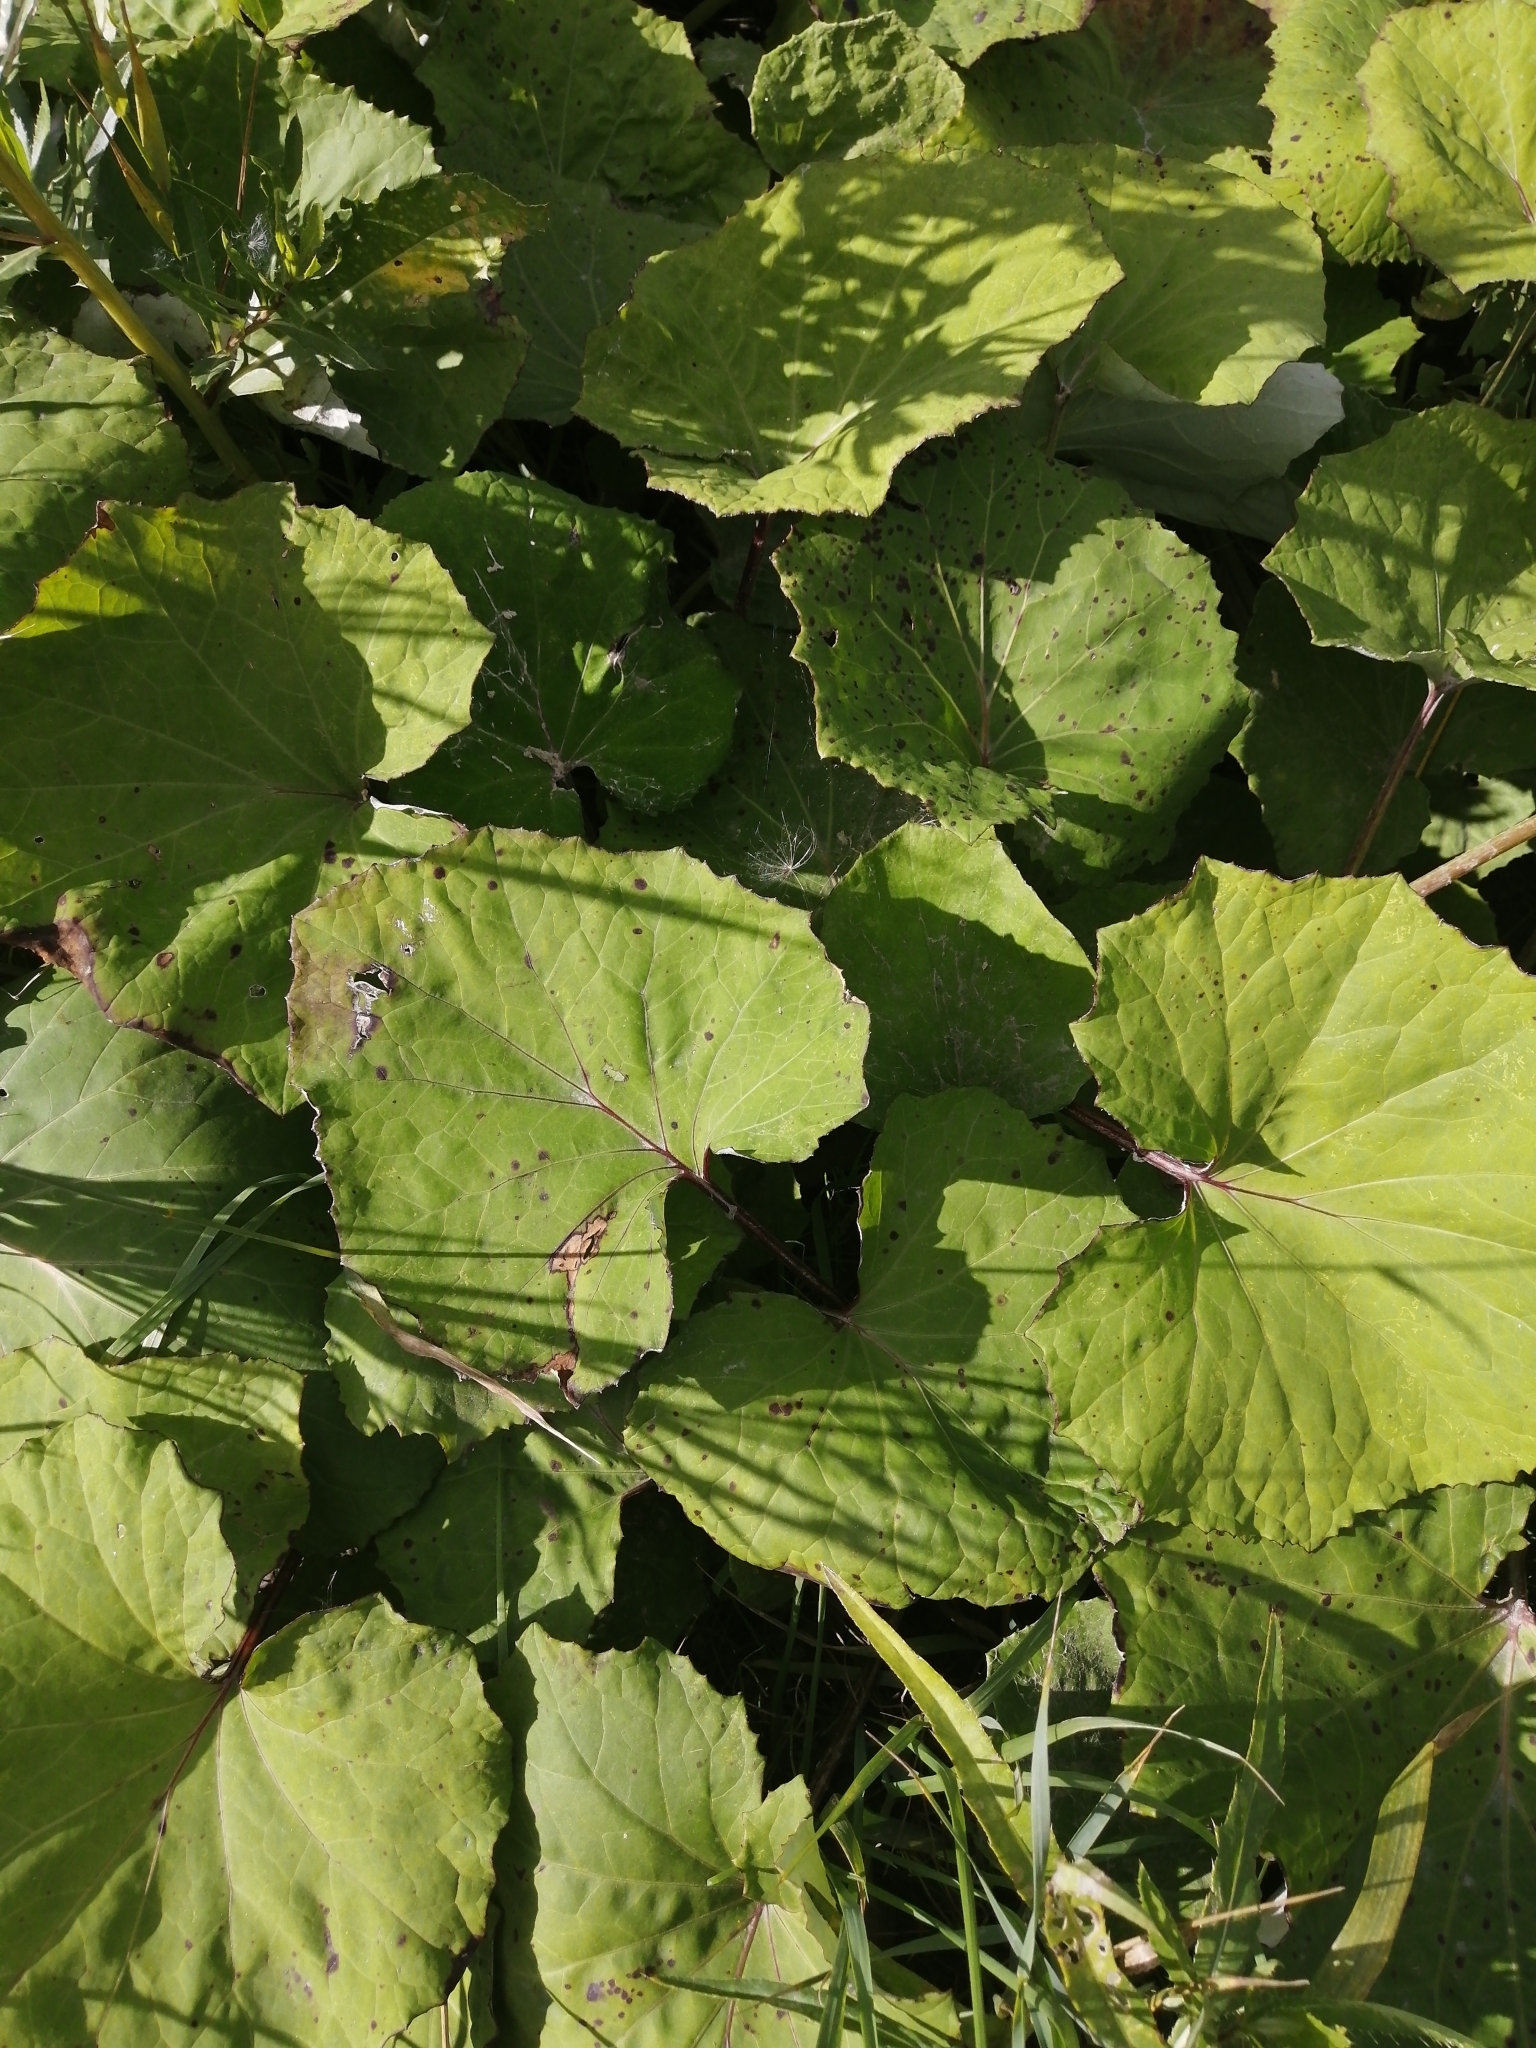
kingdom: Plantae
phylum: Tracheophyta
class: Magnoliopsida
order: Asterales
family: Asteraceae
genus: Tussilago
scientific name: Tussilago farfara
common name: Coltsfoot
